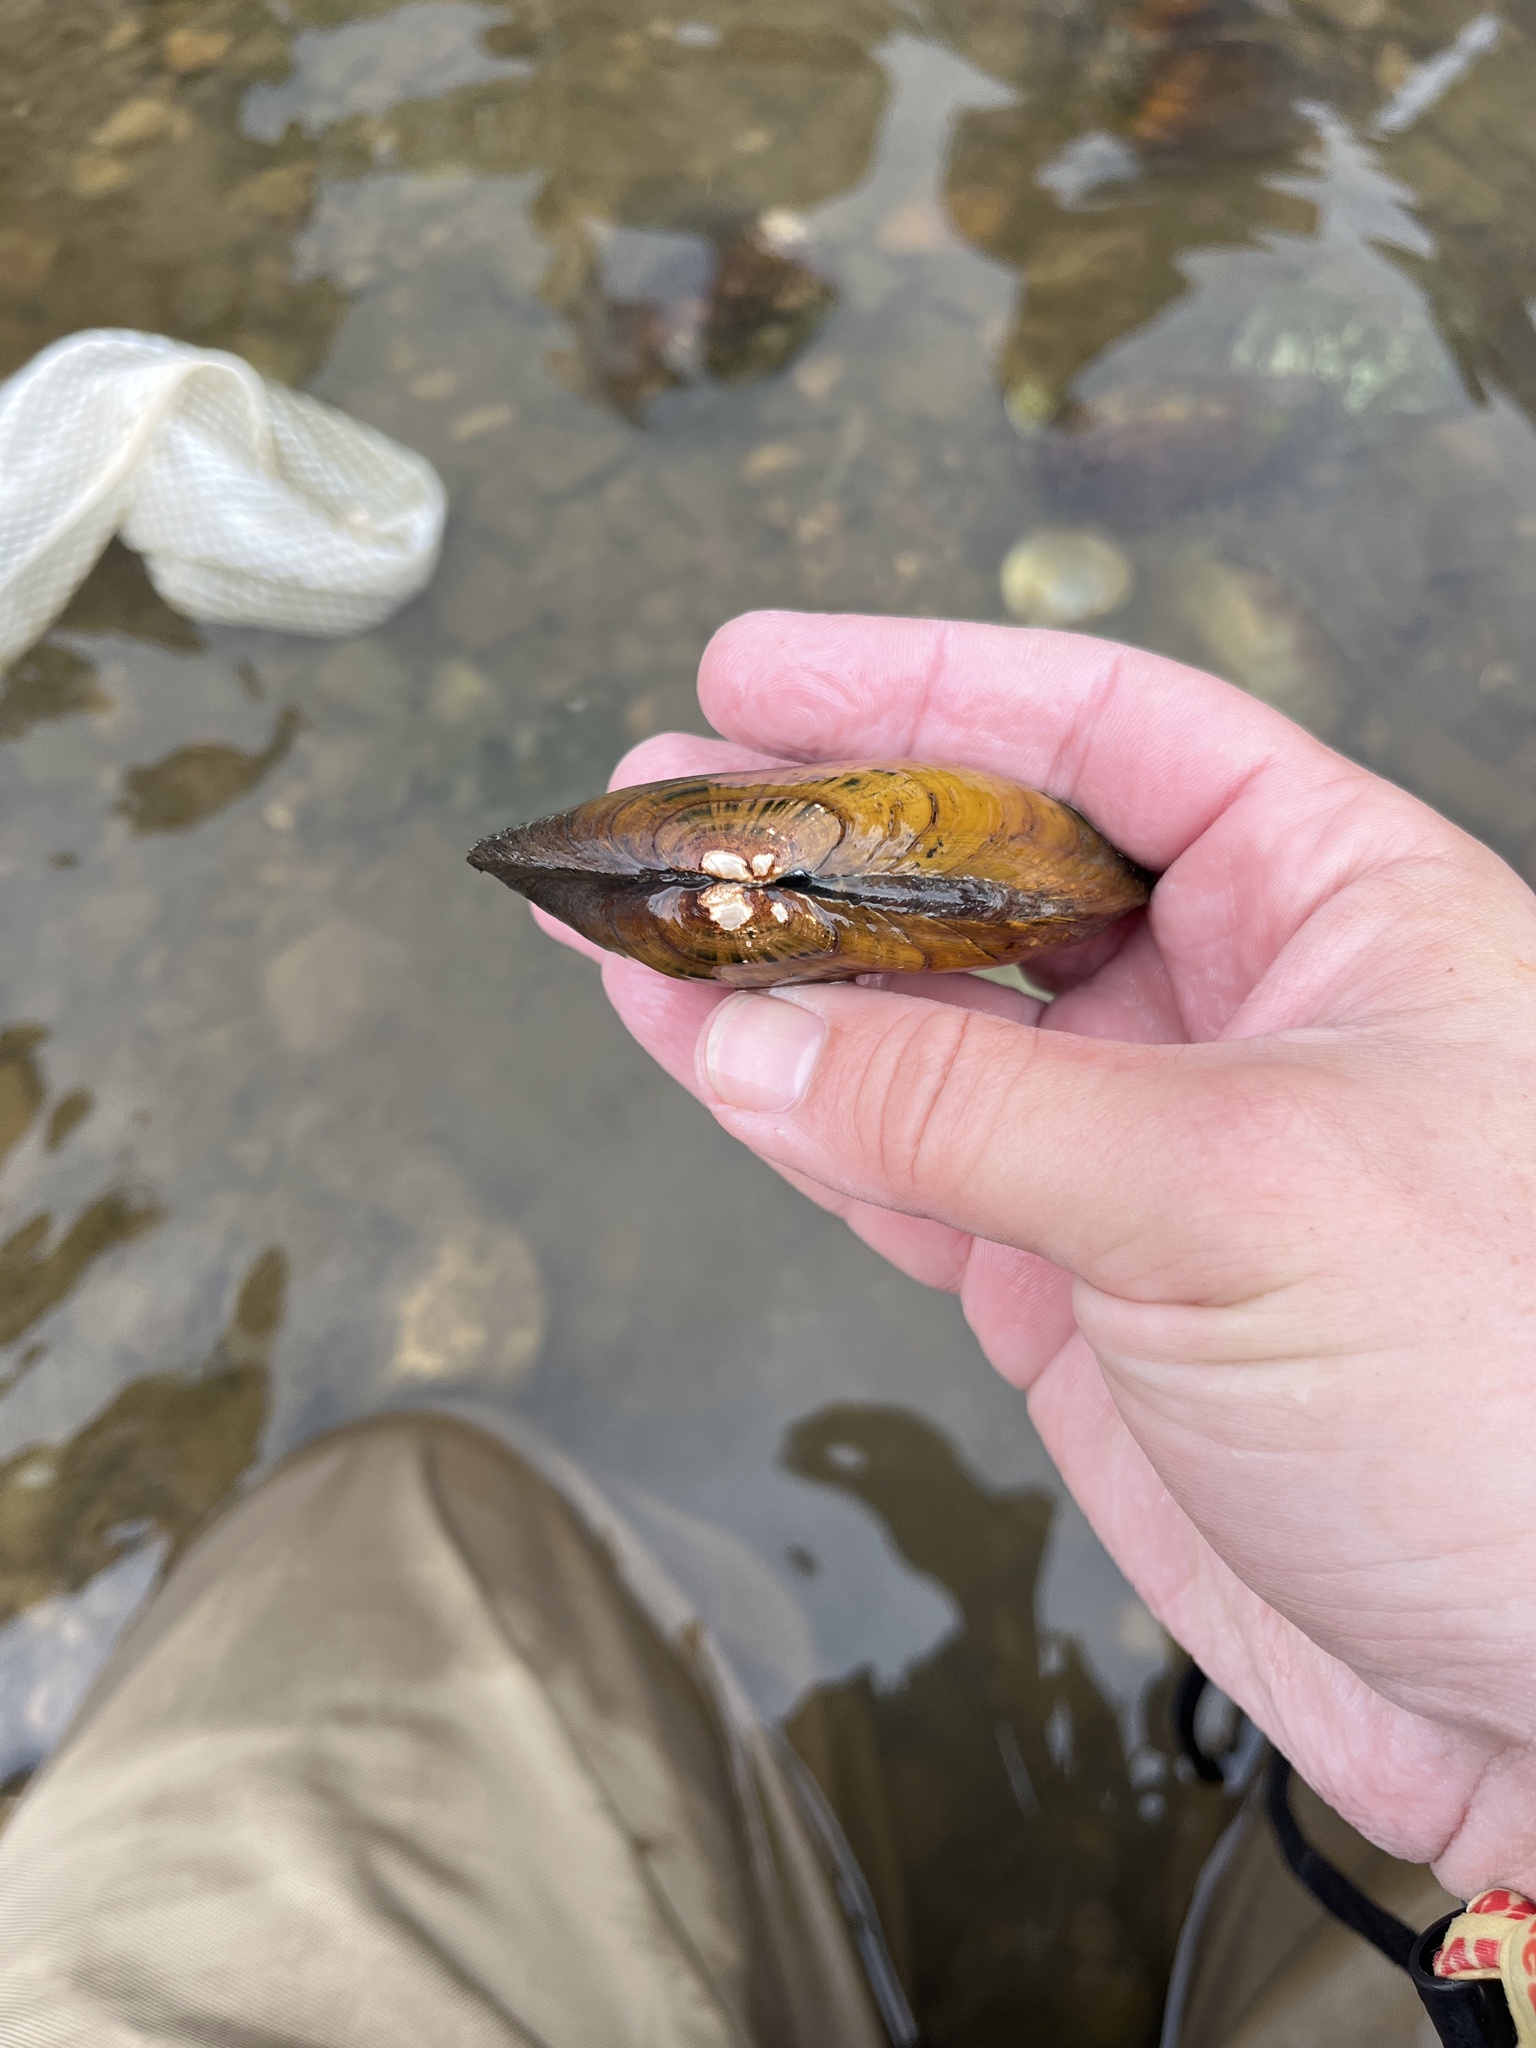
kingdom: Animalia
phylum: Mollusca
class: Bivalvia
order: Unionida
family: Unionidae
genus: Ptychobranchus
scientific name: Ptychobranchus fasciolaris
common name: Kidneyshell
